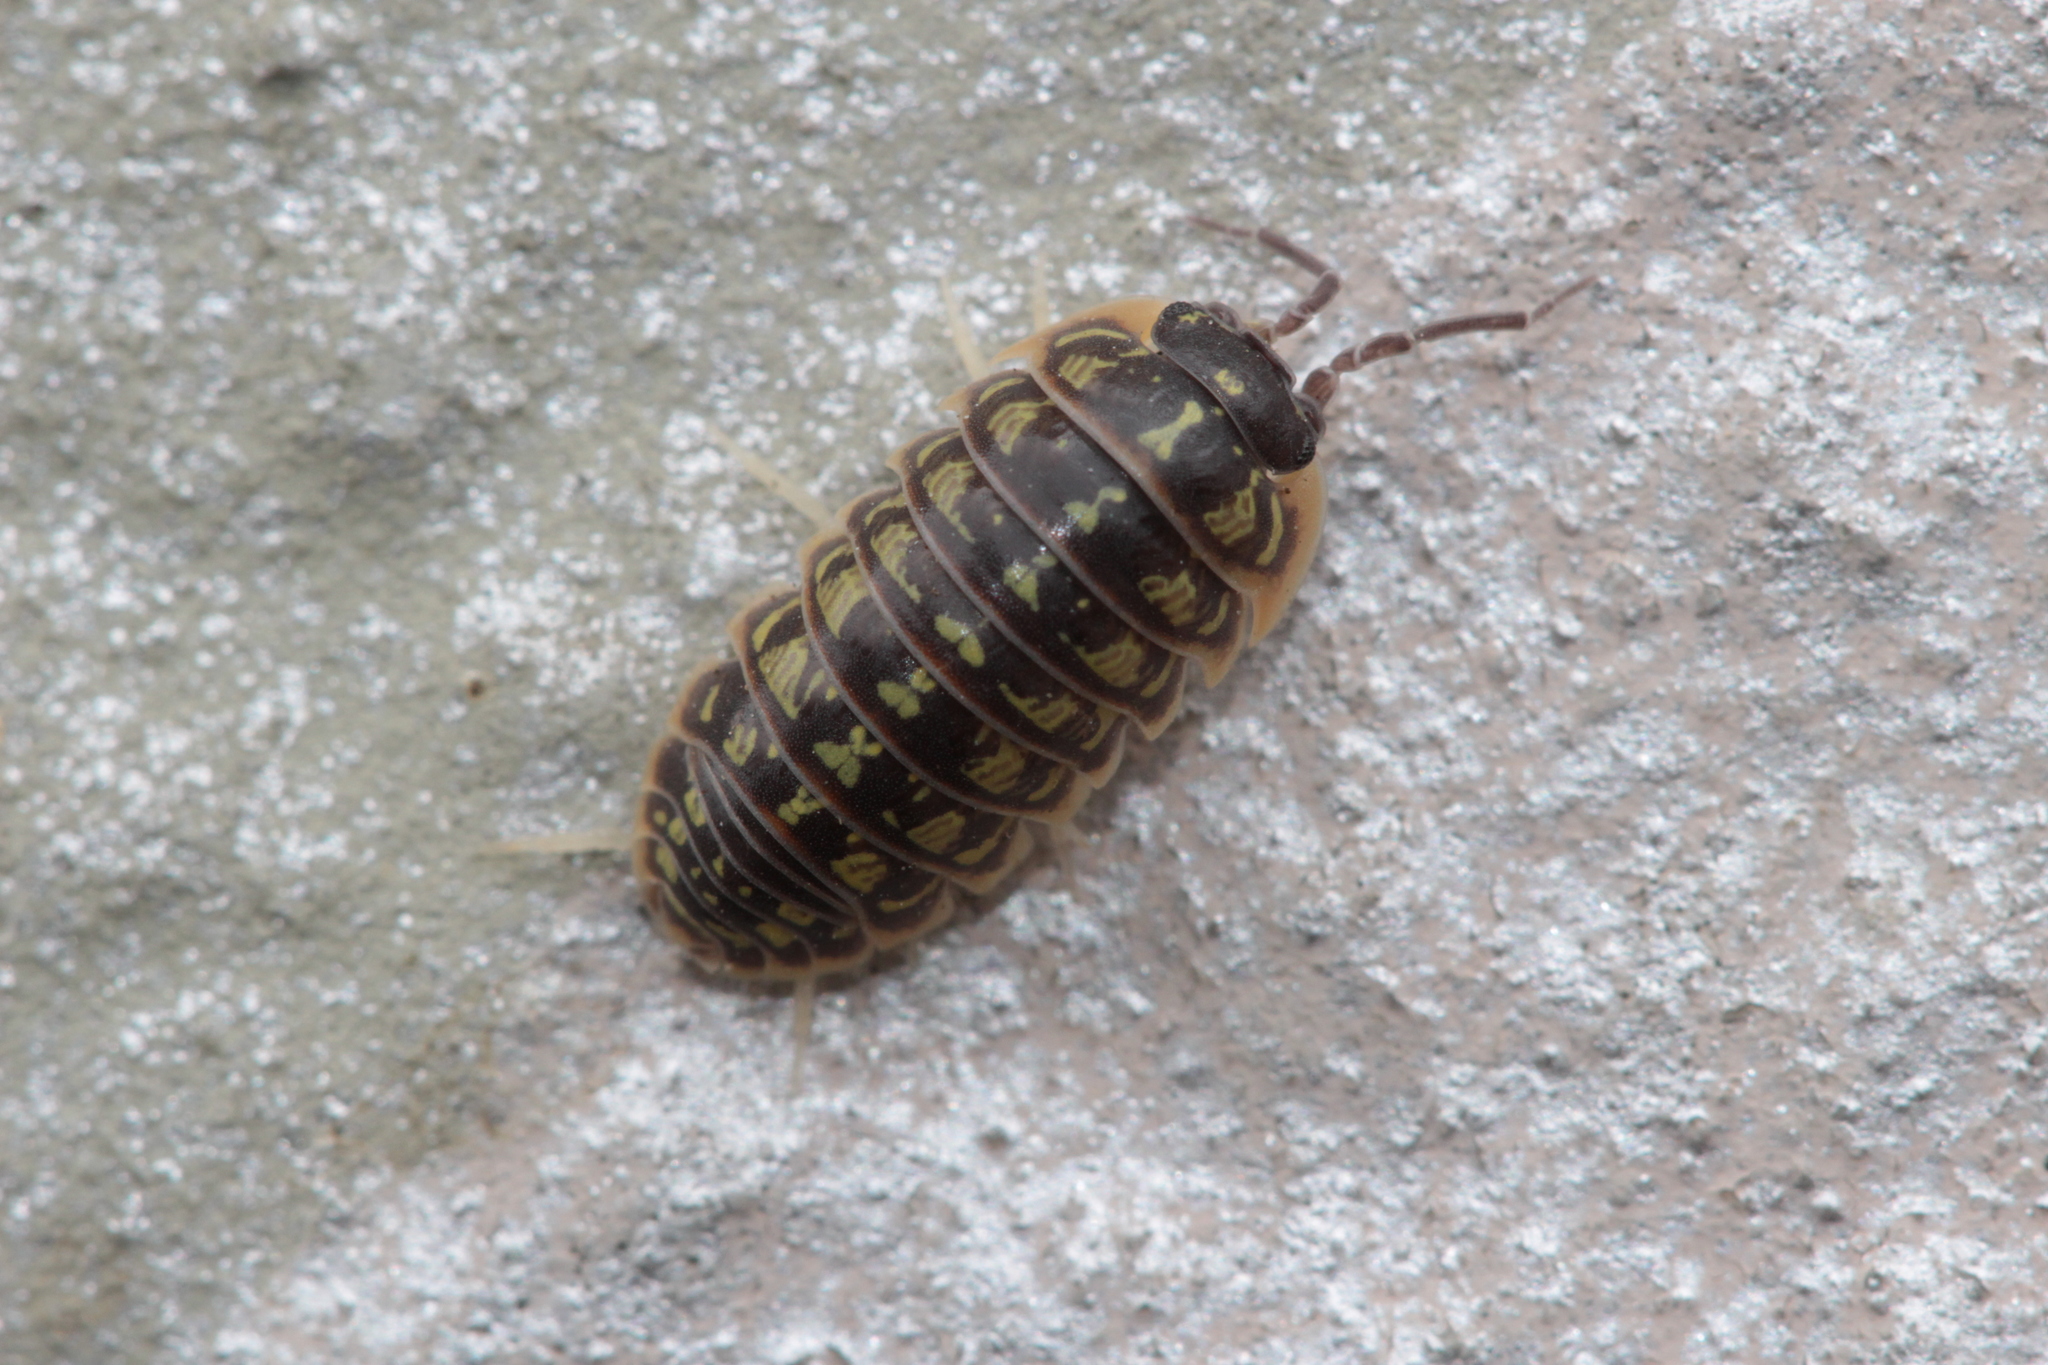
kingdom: Animalia
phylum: Arthropoda
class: Malacostraca
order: Isopoda
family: Armadillidiidae
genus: Armadillidium
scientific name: Armadillidium versicolor
